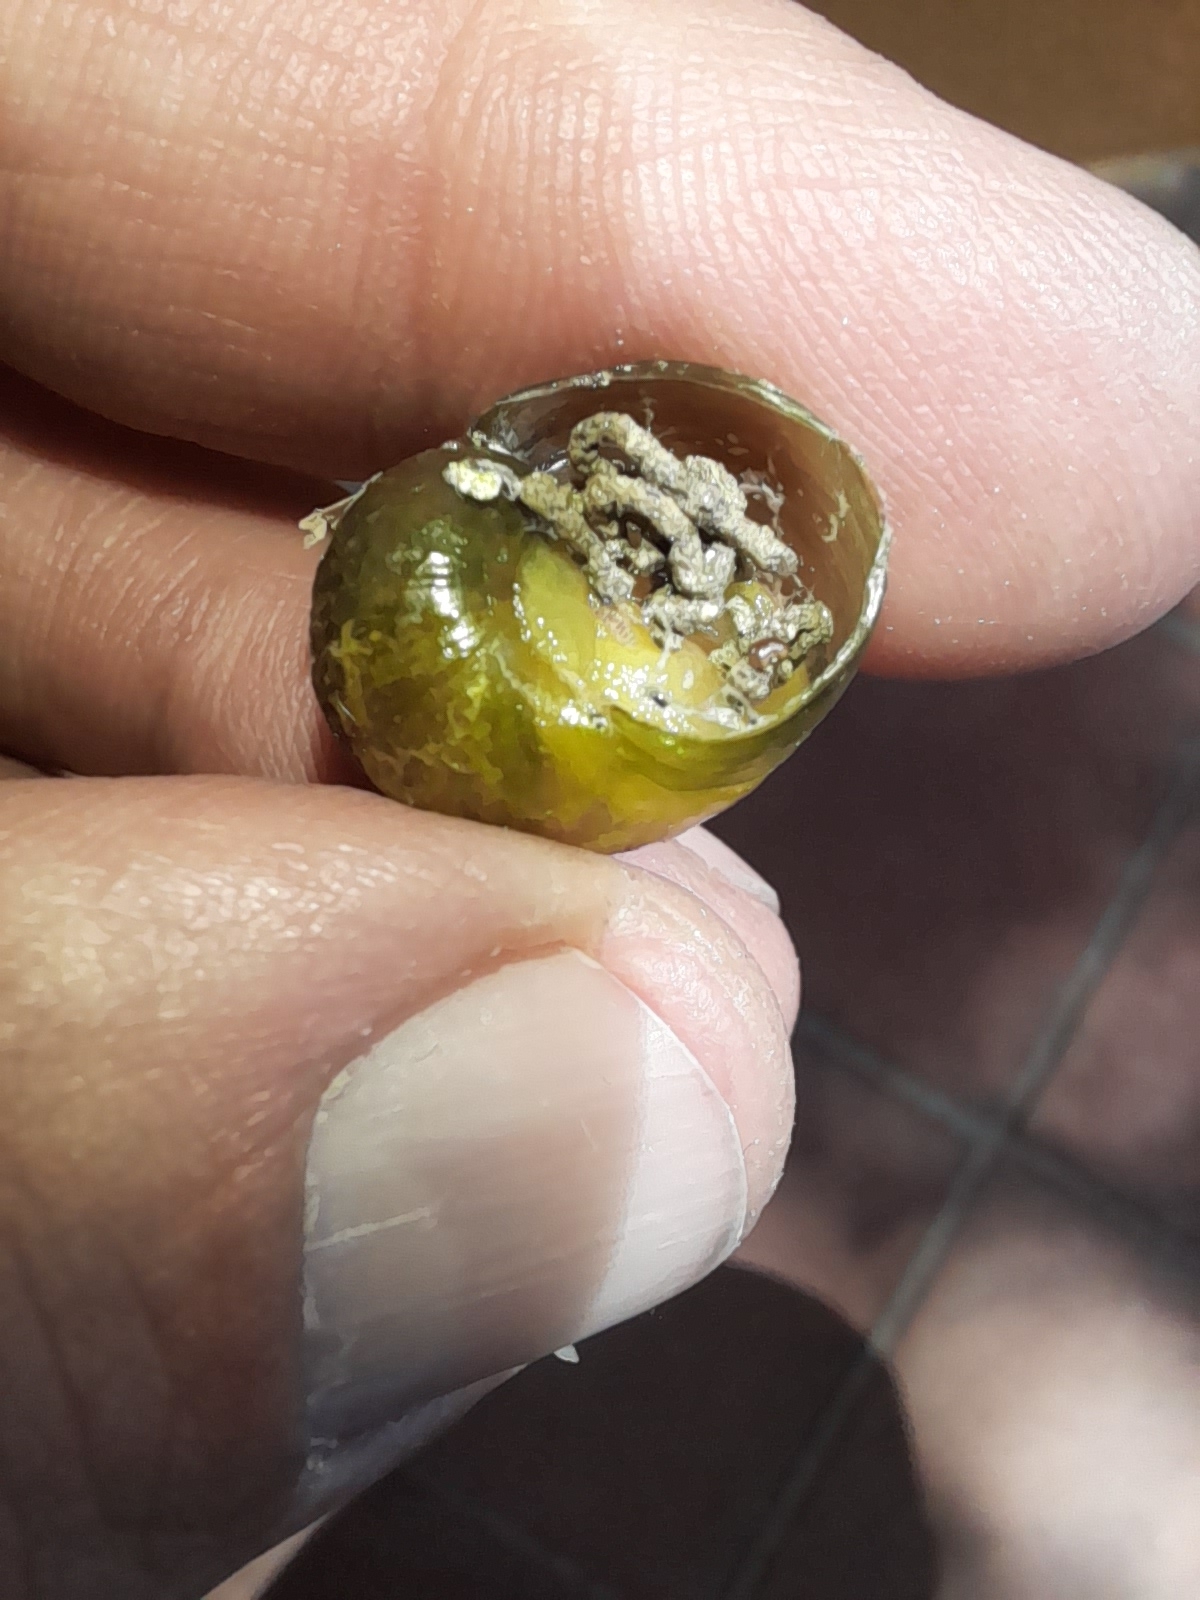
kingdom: Animalia
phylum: Mollusca
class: Gastropoda
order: Stylommatophora
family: Helicidae
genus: Cantareus
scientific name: Cantareus apertus
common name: Green gardensnail
